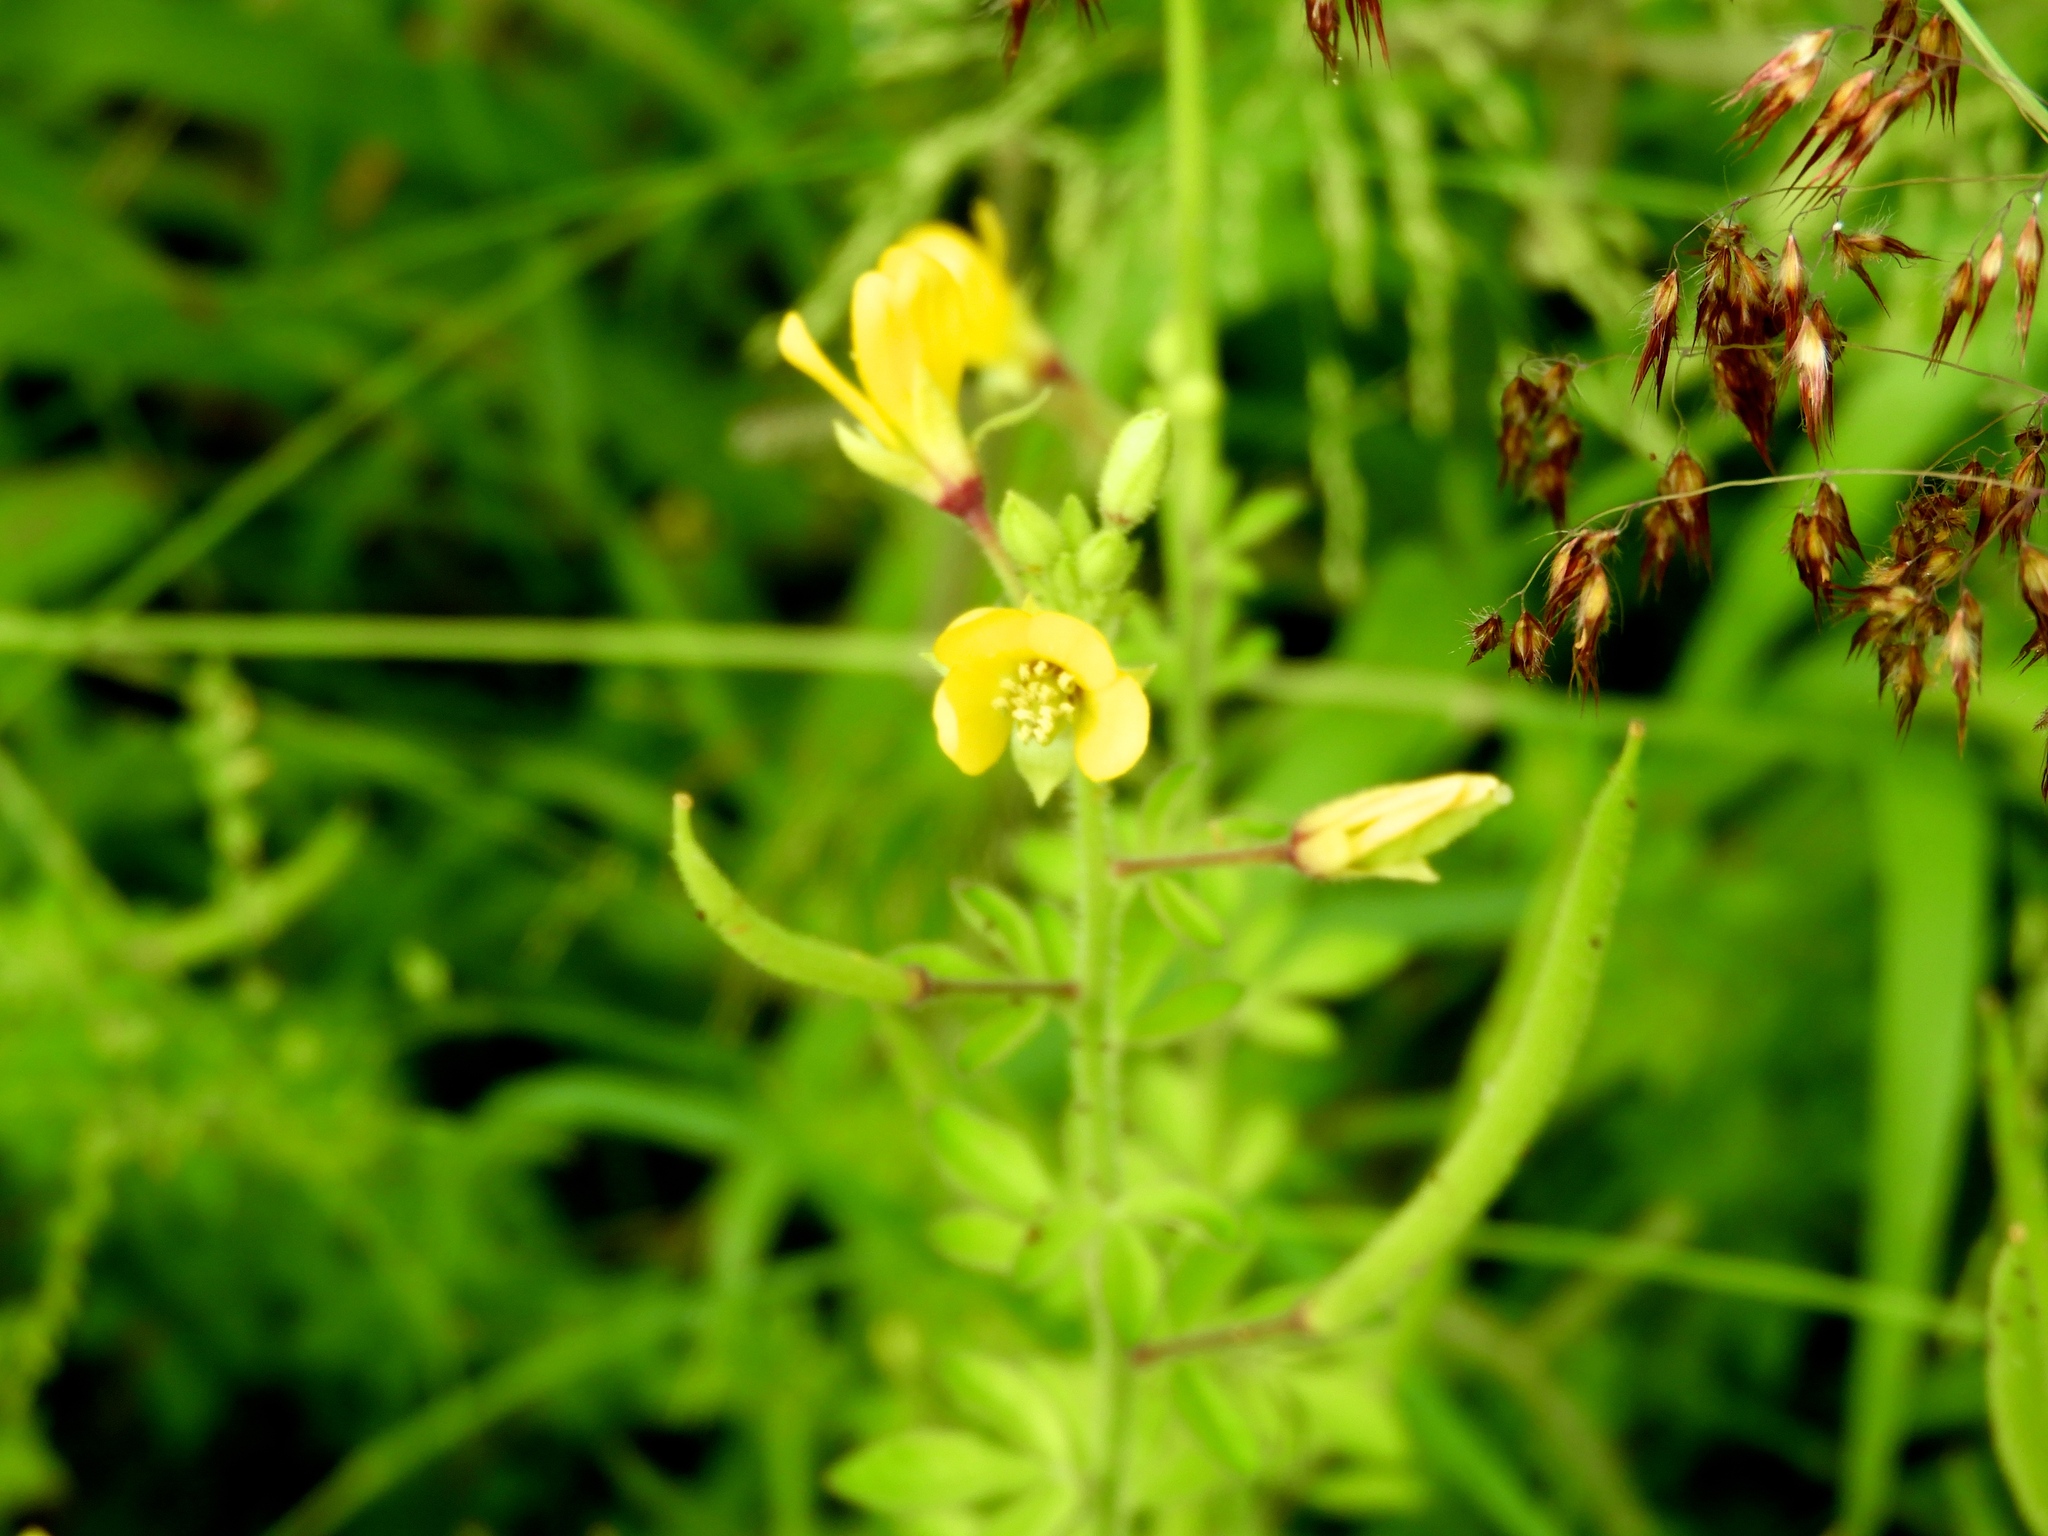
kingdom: Plantae
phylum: Tracheophyta
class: Magnoliopsida
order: Brassicales
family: Cleomaceae
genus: Arivela
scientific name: Arivela viscosa
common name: Asian spiderflower
